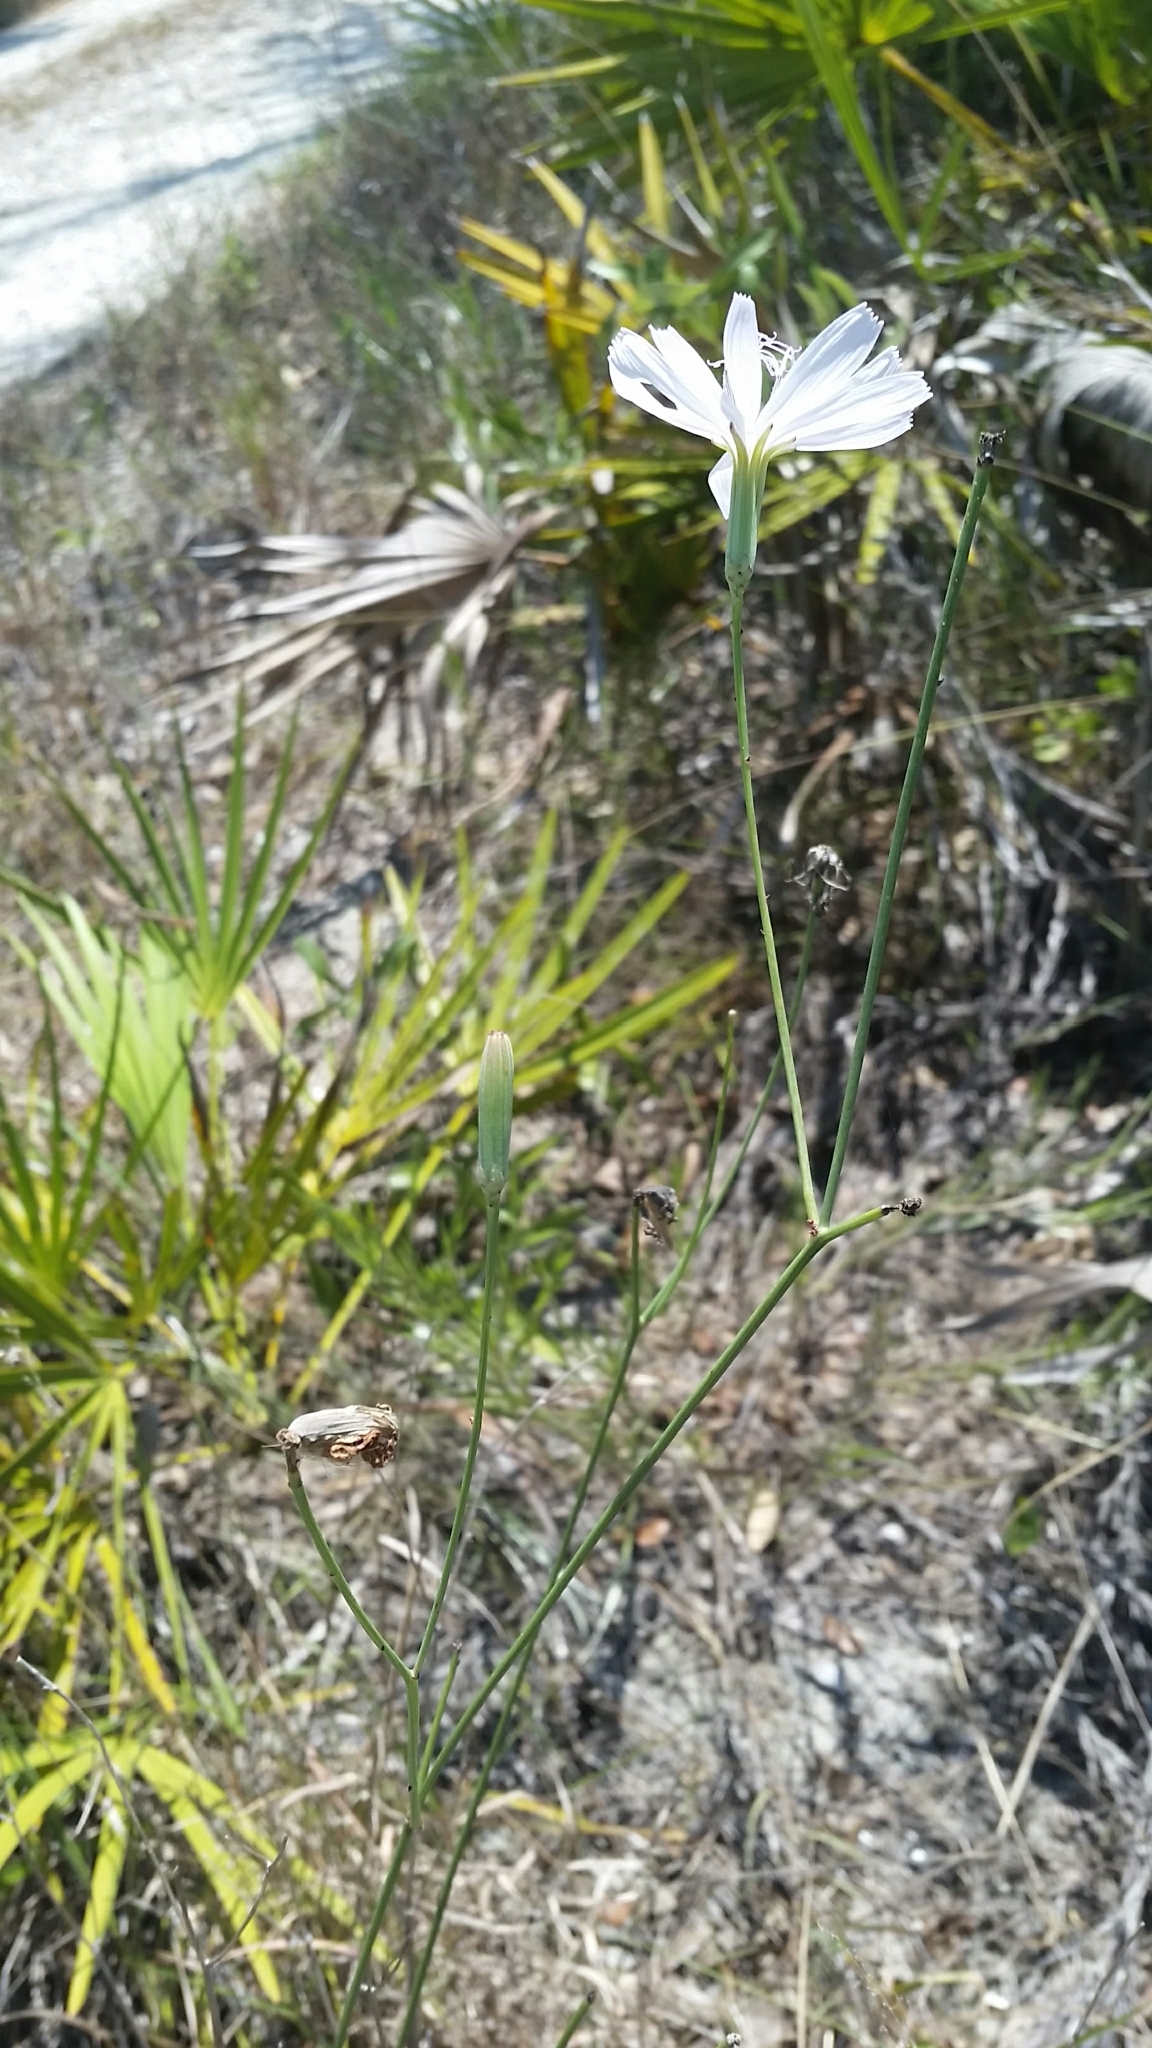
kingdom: Plantae
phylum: Tracheophyta
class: Magnoliopsida
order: Asterales
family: Asteraceae
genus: Lygodesmia
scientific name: Lygodesmia aphylla
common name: Rose-rush
